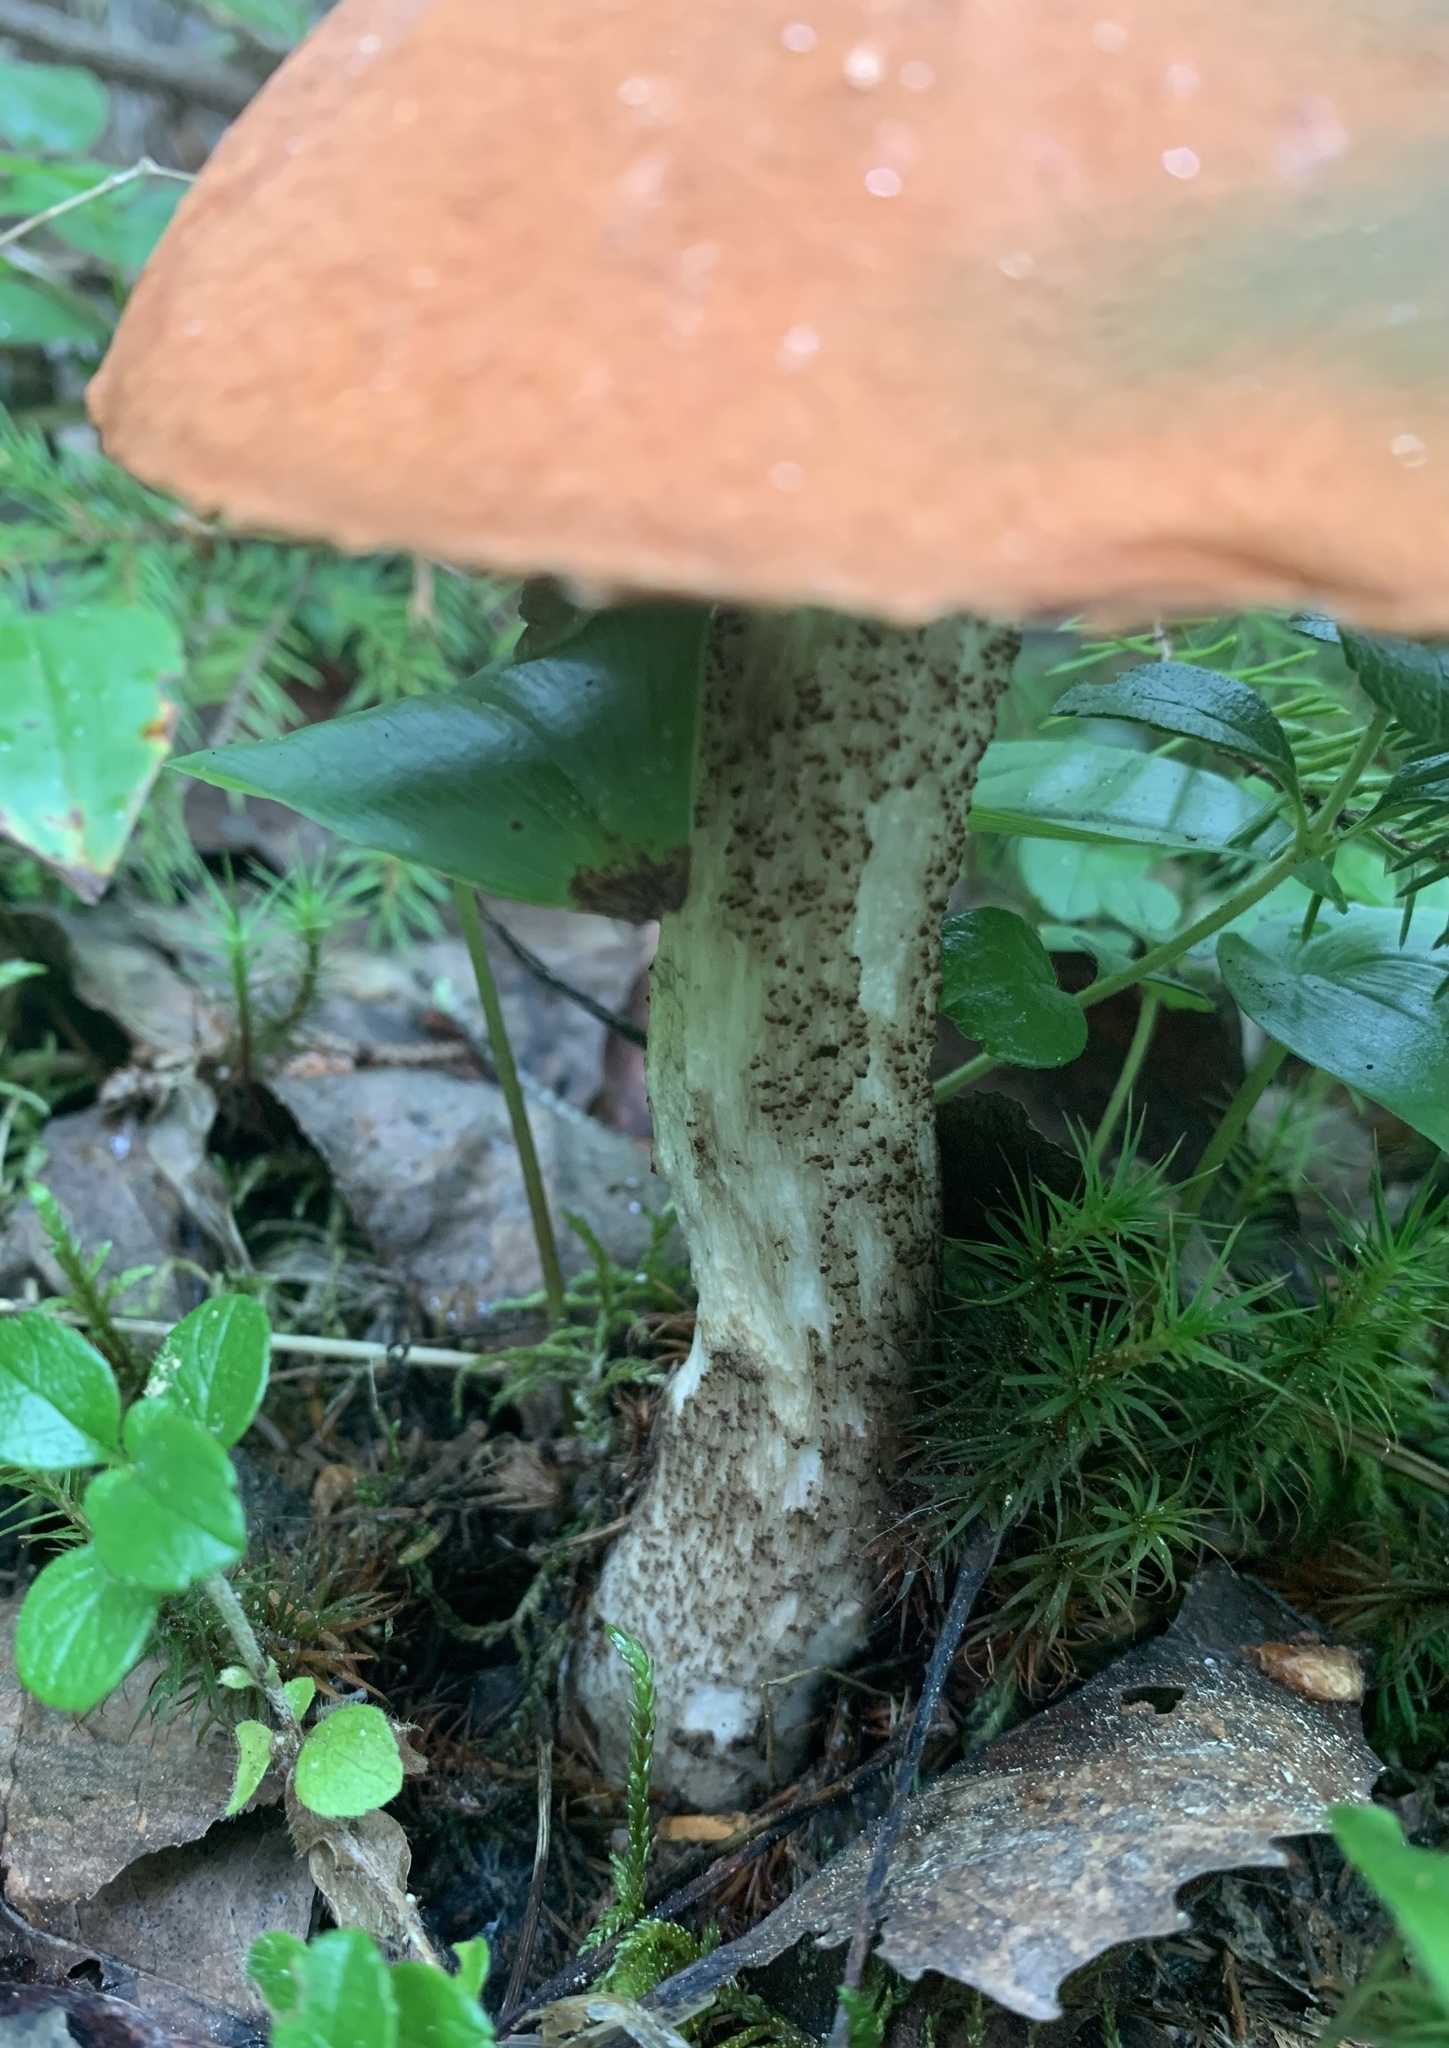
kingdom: Fungi
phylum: Basidiomycota
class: Agaricomycetes
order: Boletales
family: Boletaceae
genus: Leccinum
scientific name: Leccinum aurantiacum
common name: Orange bolete
